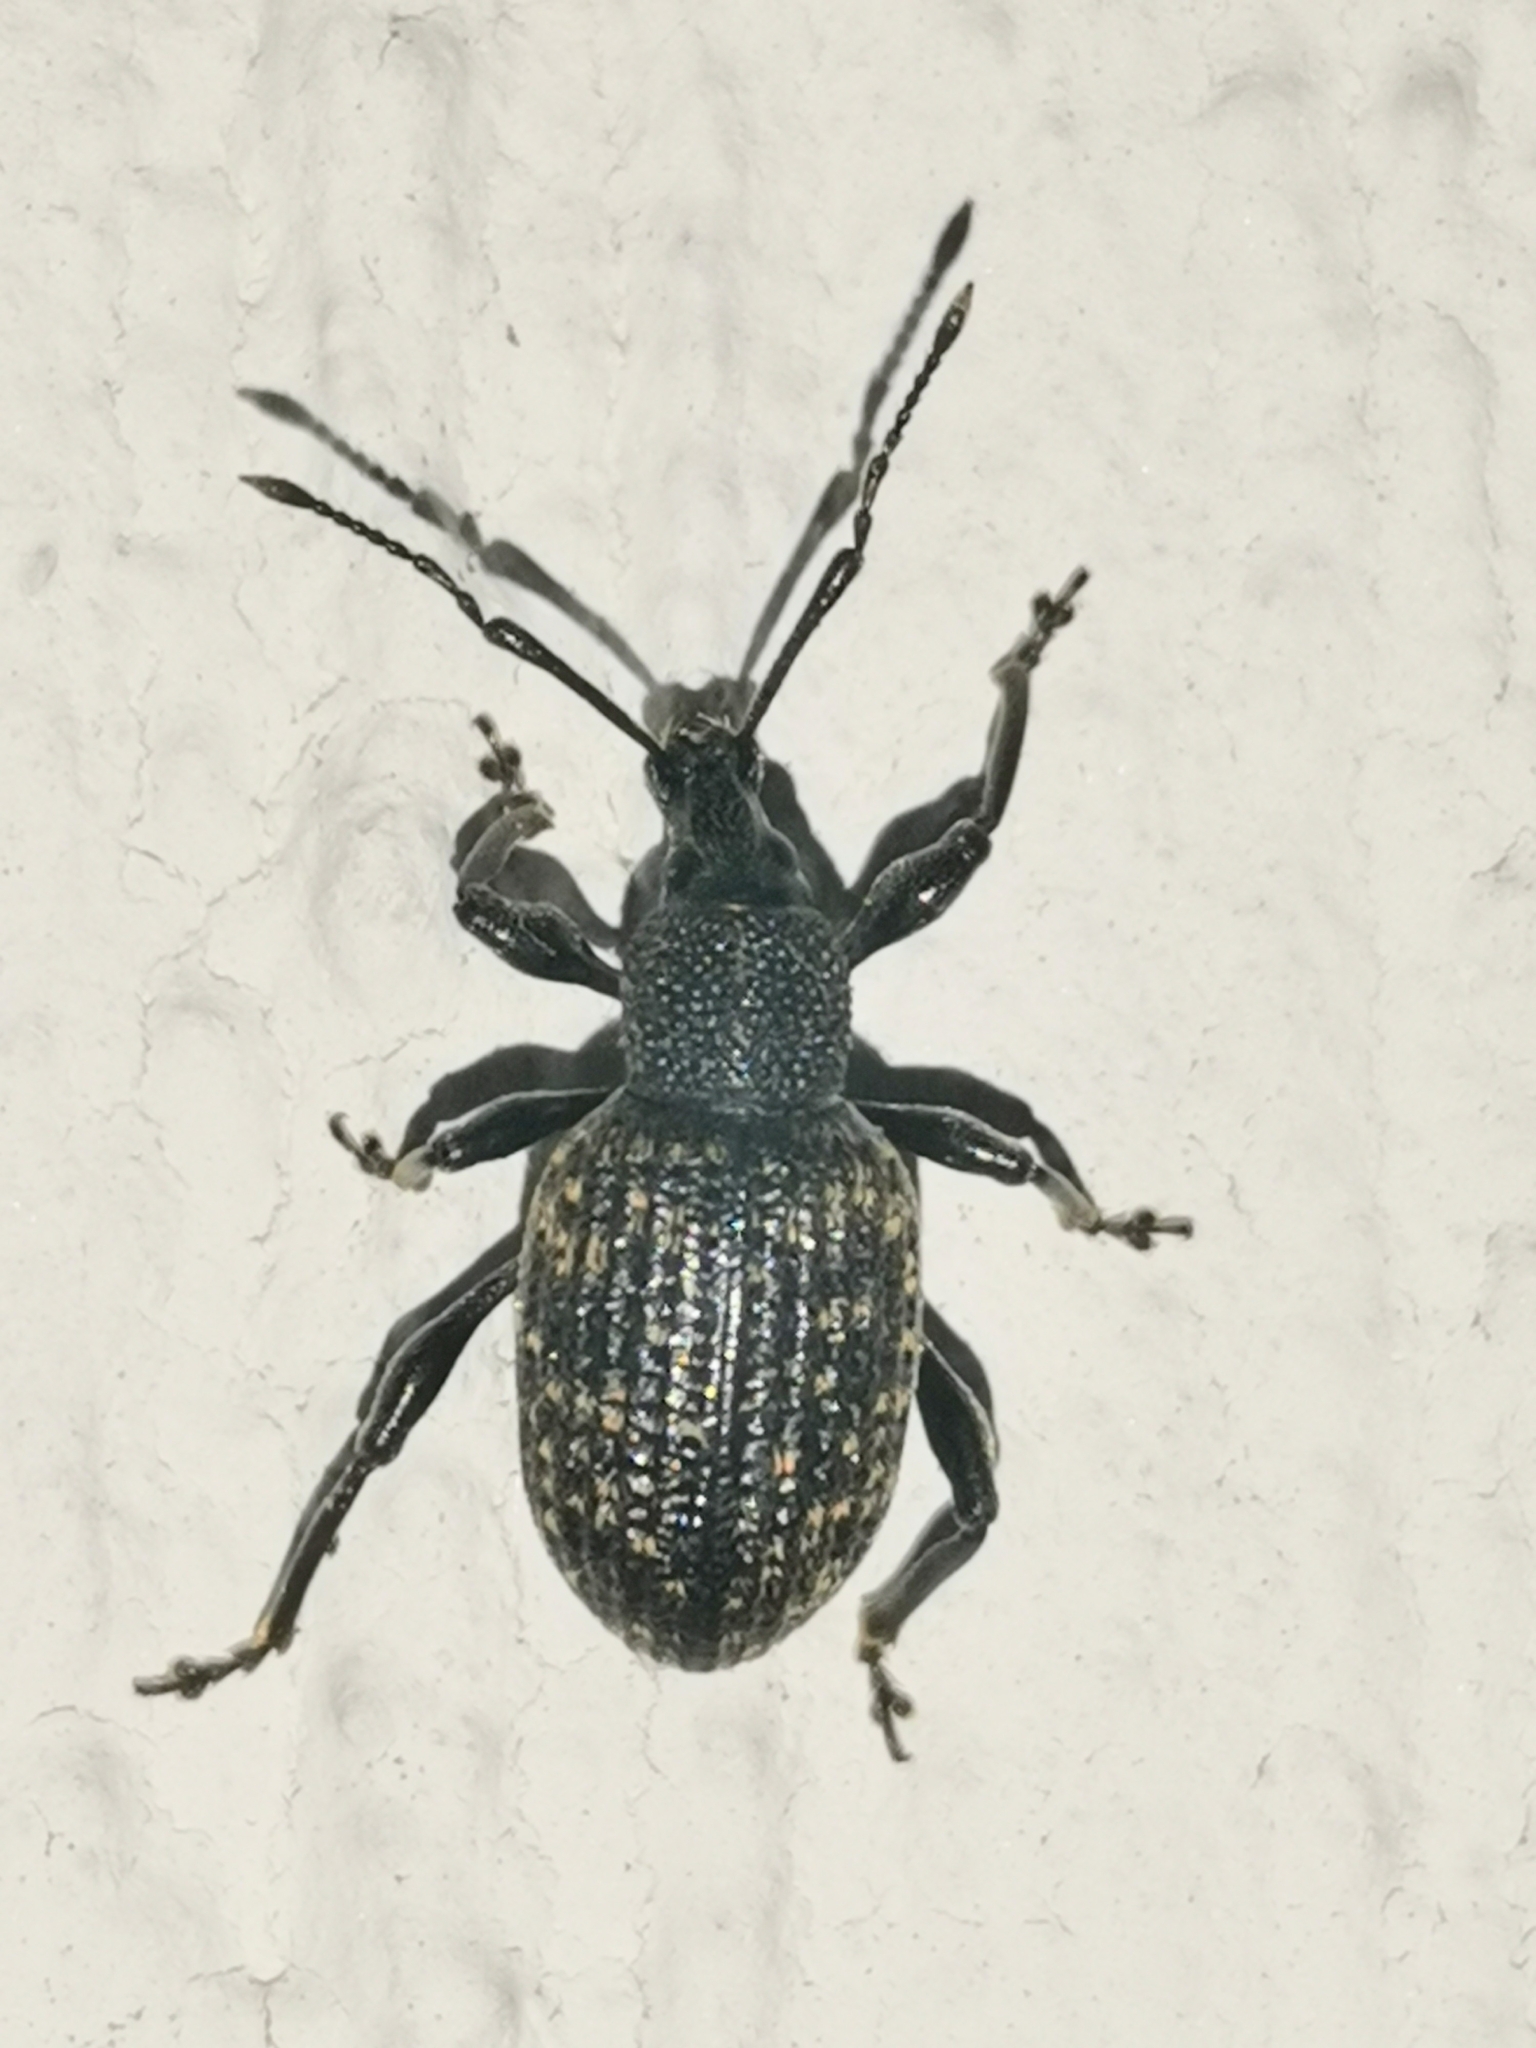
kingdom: Animalia
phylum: Arthropoda
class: Insecta
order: Coleoptera
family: Curculionidae
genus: Otiorhynchus
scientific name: Otiorhynchus sulcatus
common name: Black vine weevil
